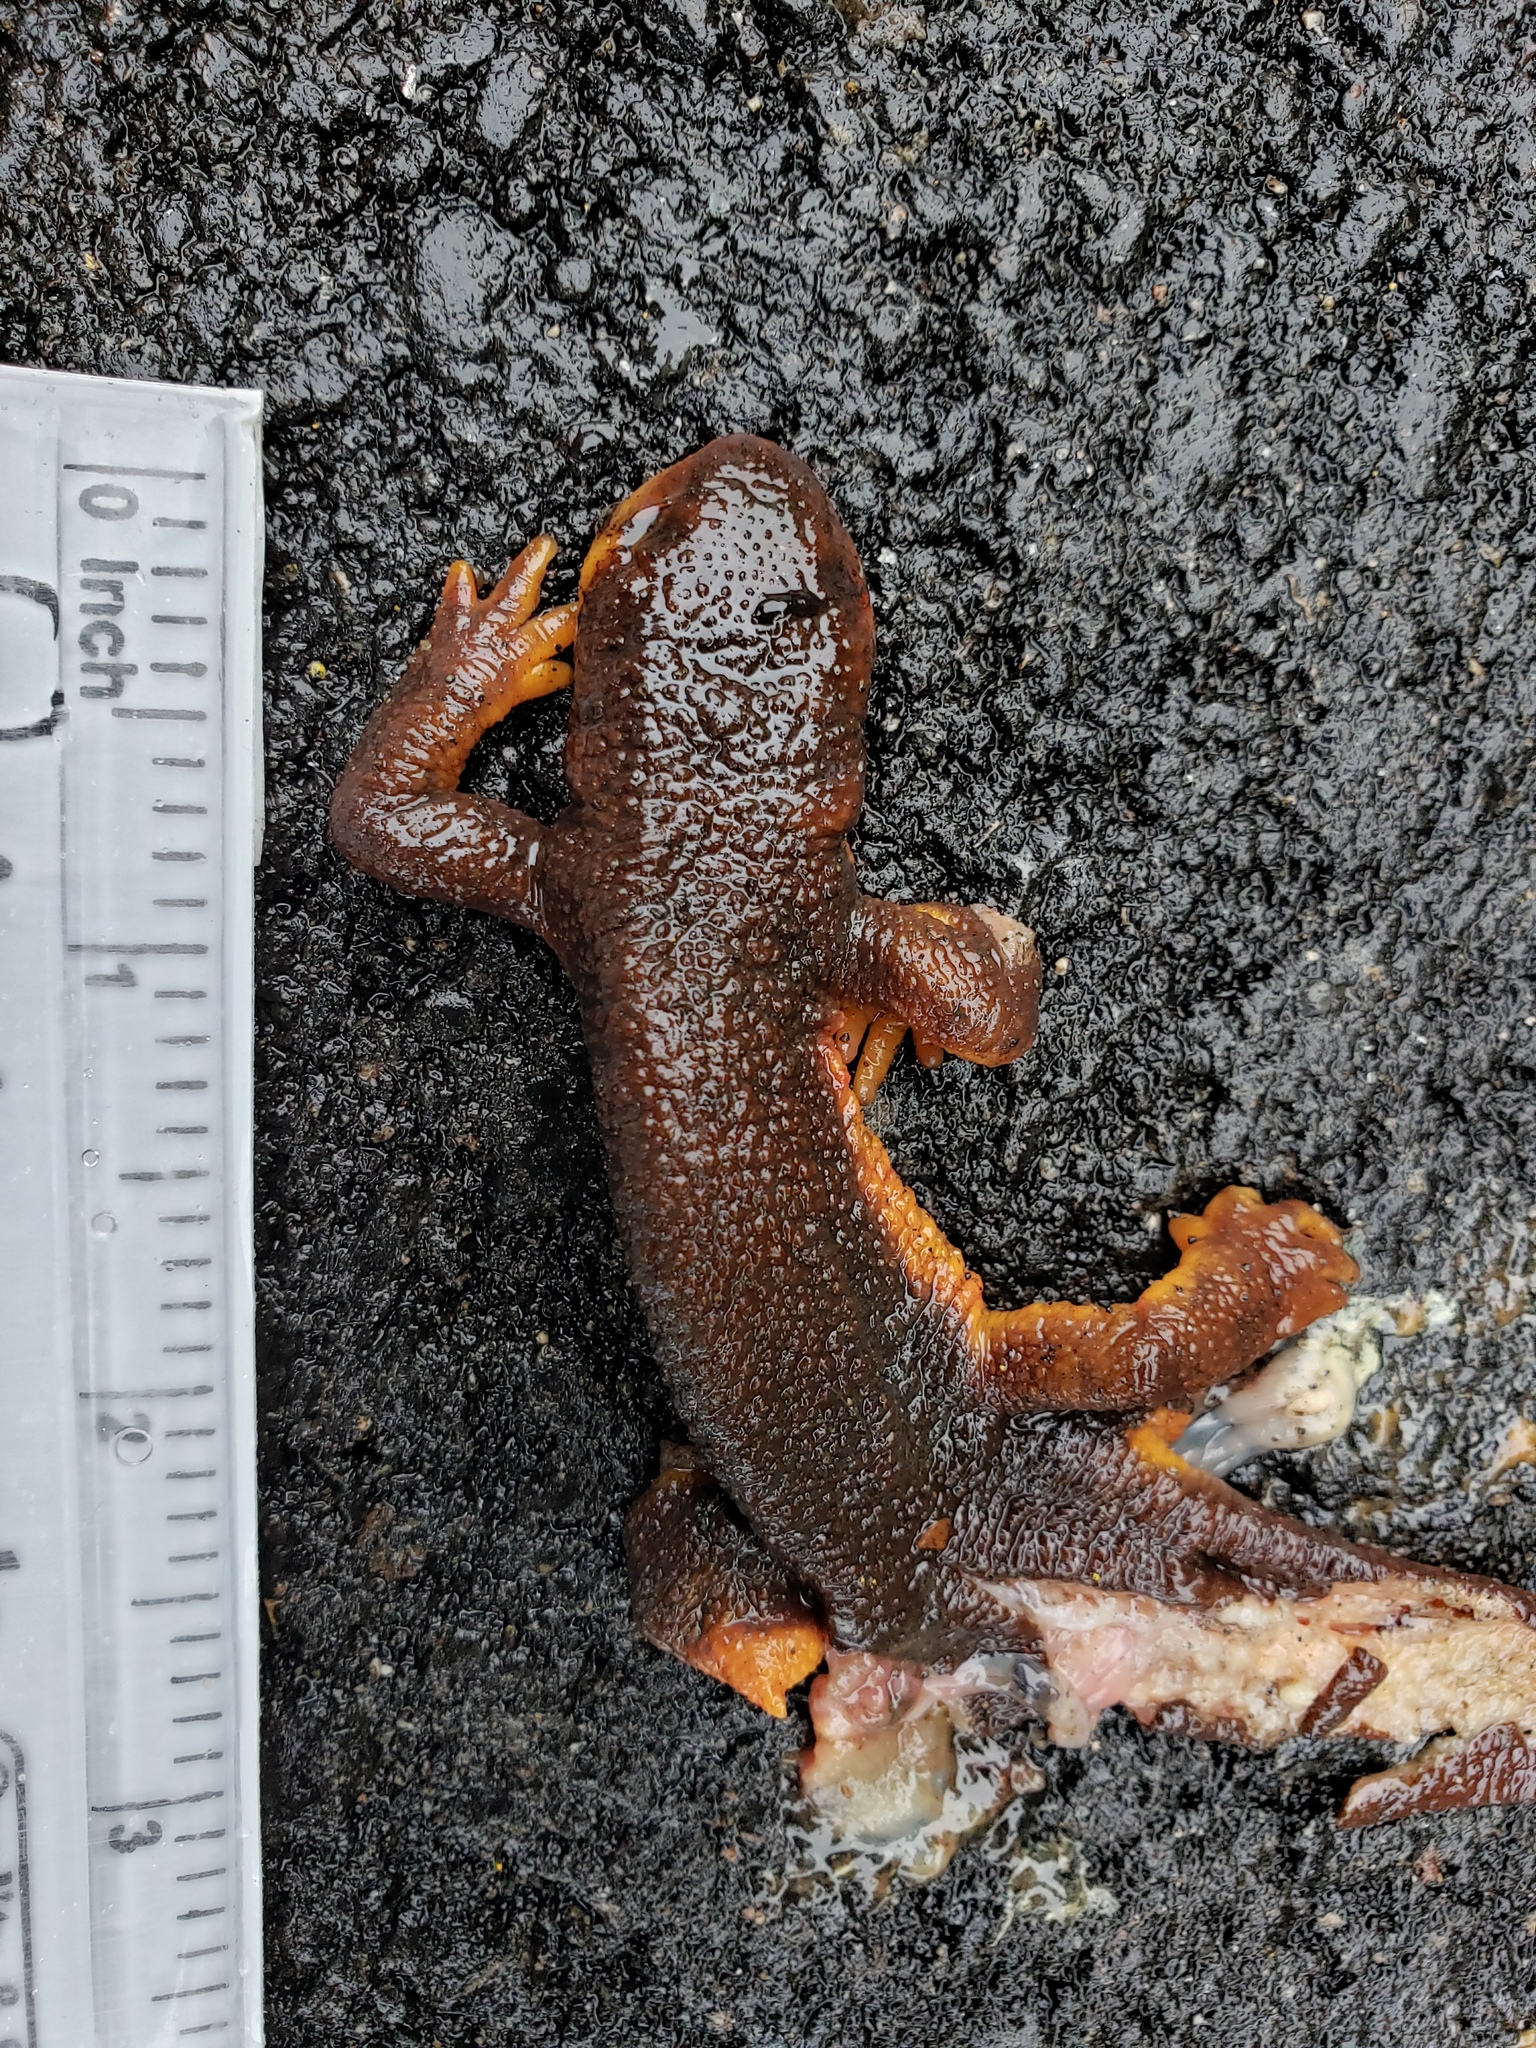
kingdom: Animalia
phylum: Chordata
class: Amphibia
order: Caudata
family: Salamandridae
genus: Taricha
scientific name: Taricha
